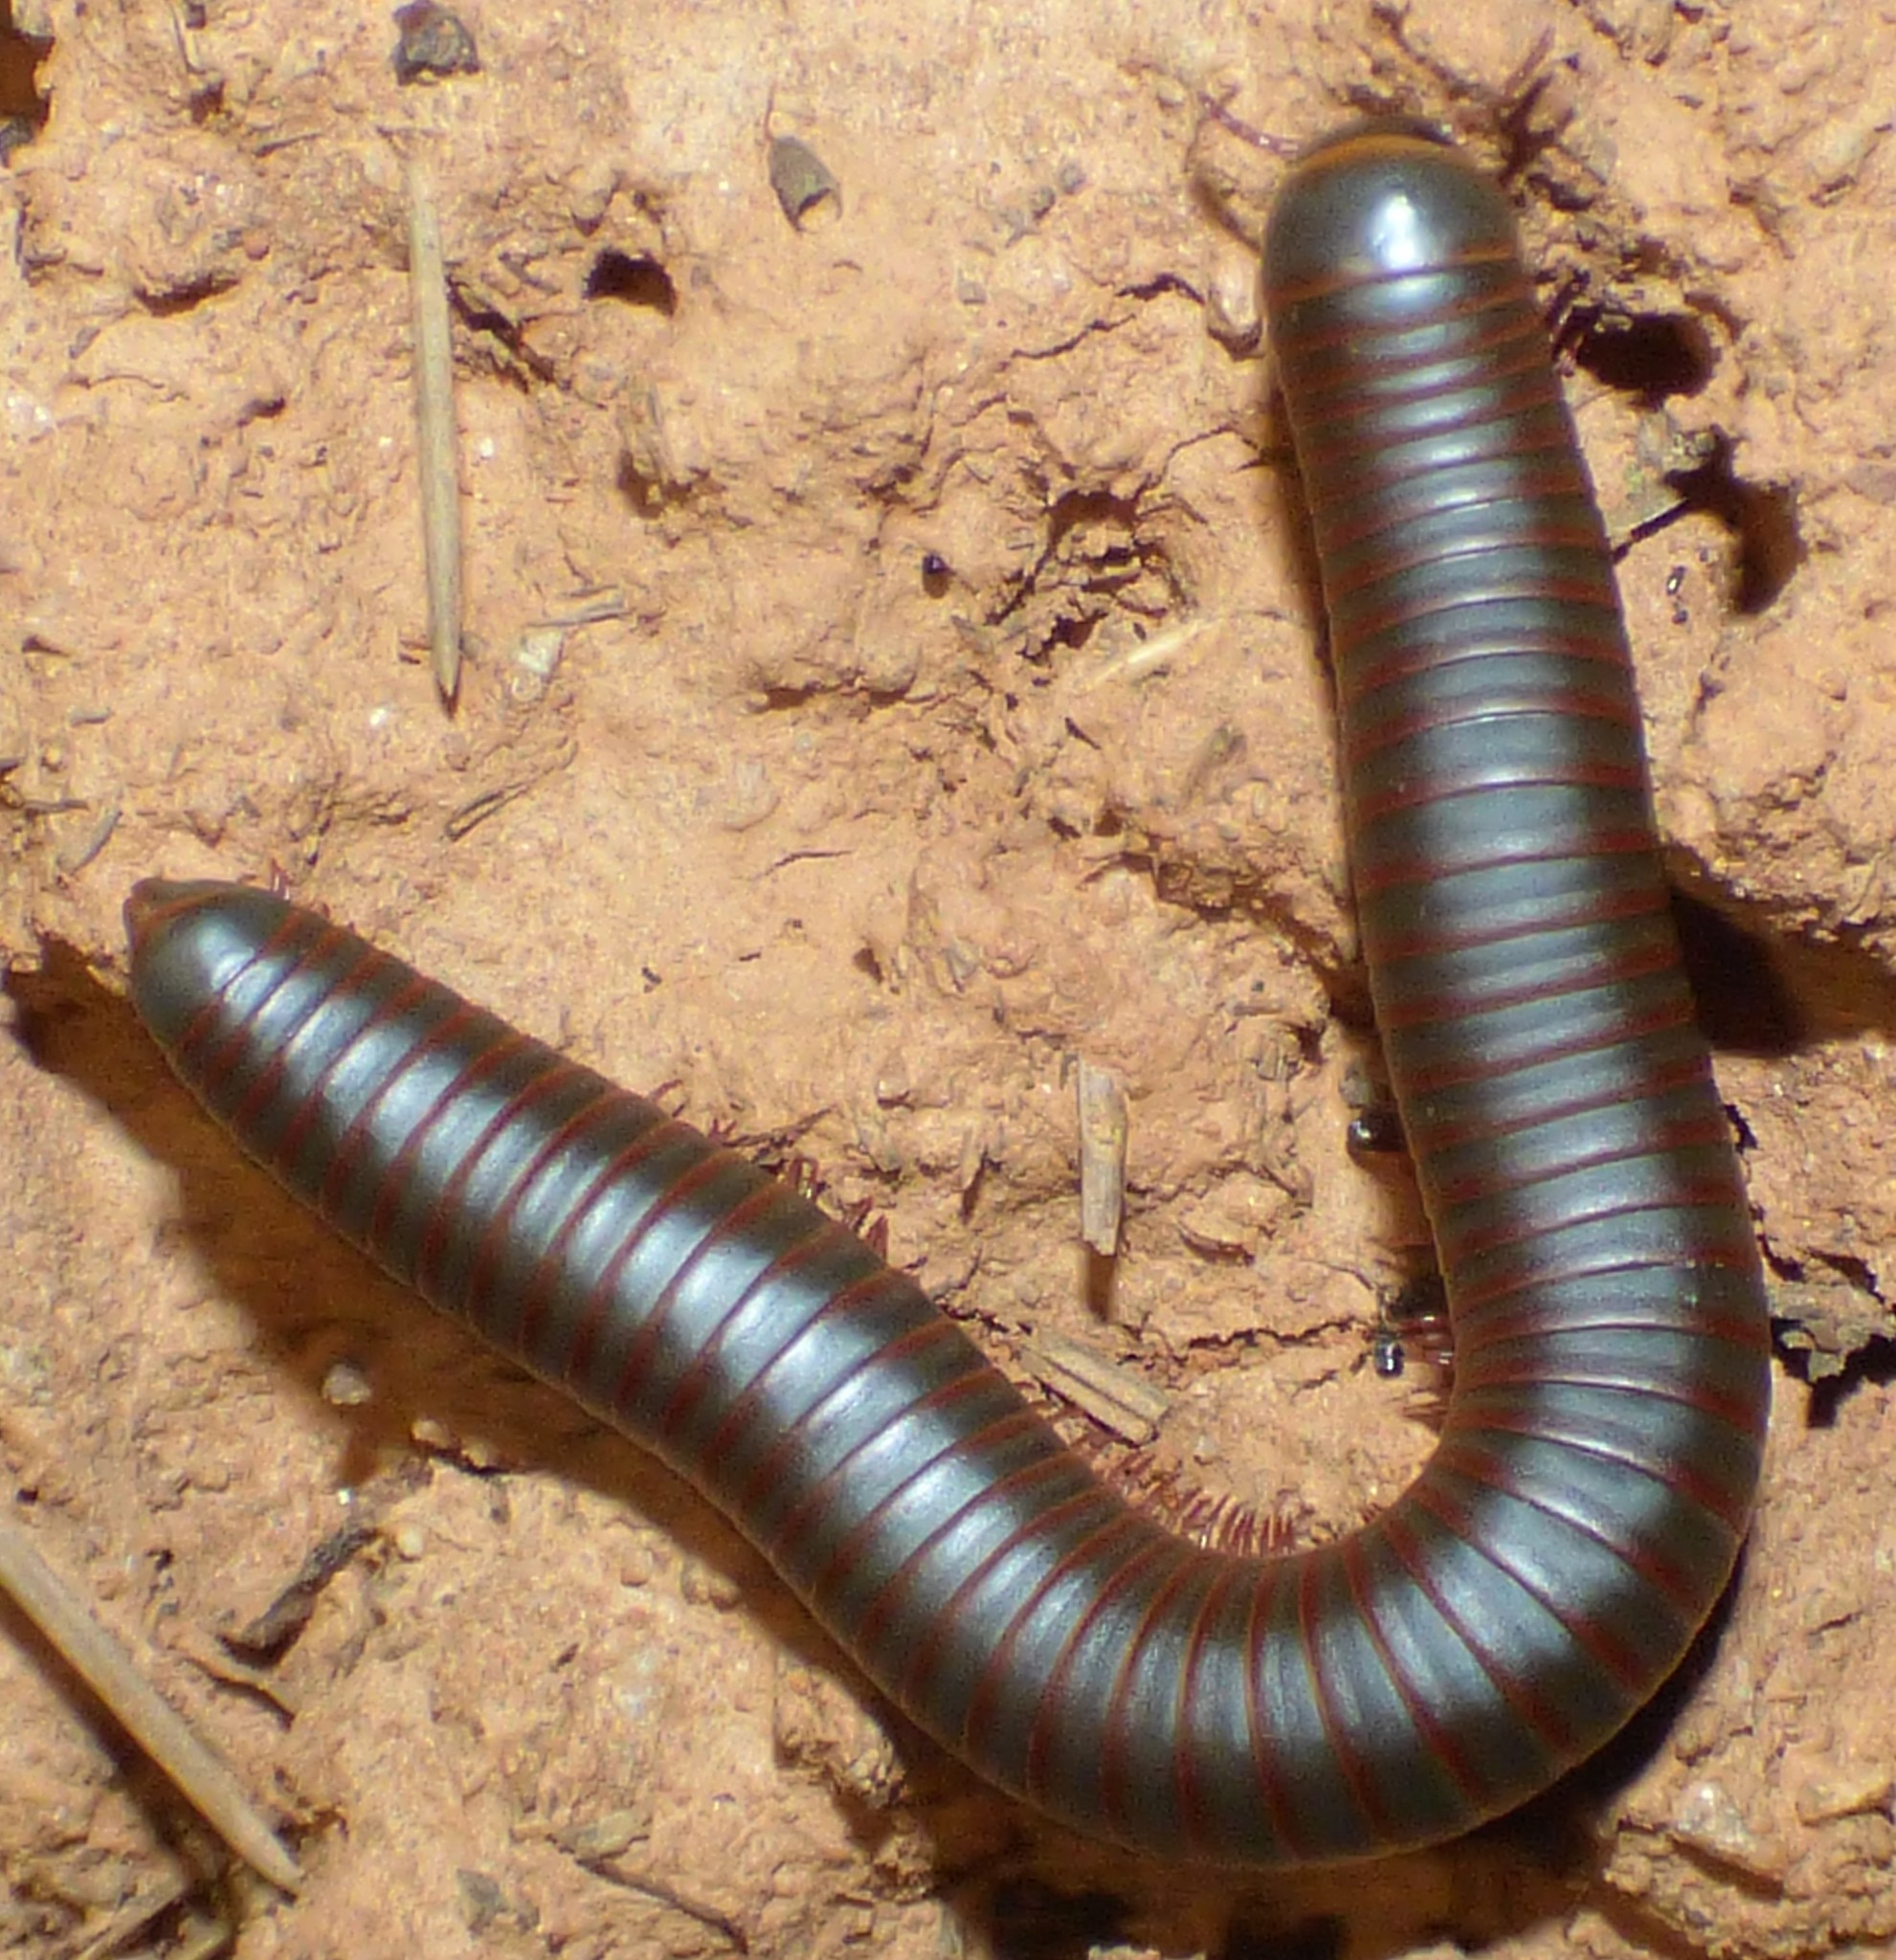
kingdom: Animalia
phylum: Arthropoda
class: Diplopoda
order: Spirobolida
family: Spirobolidae
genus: Narceus
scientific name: Narceus
